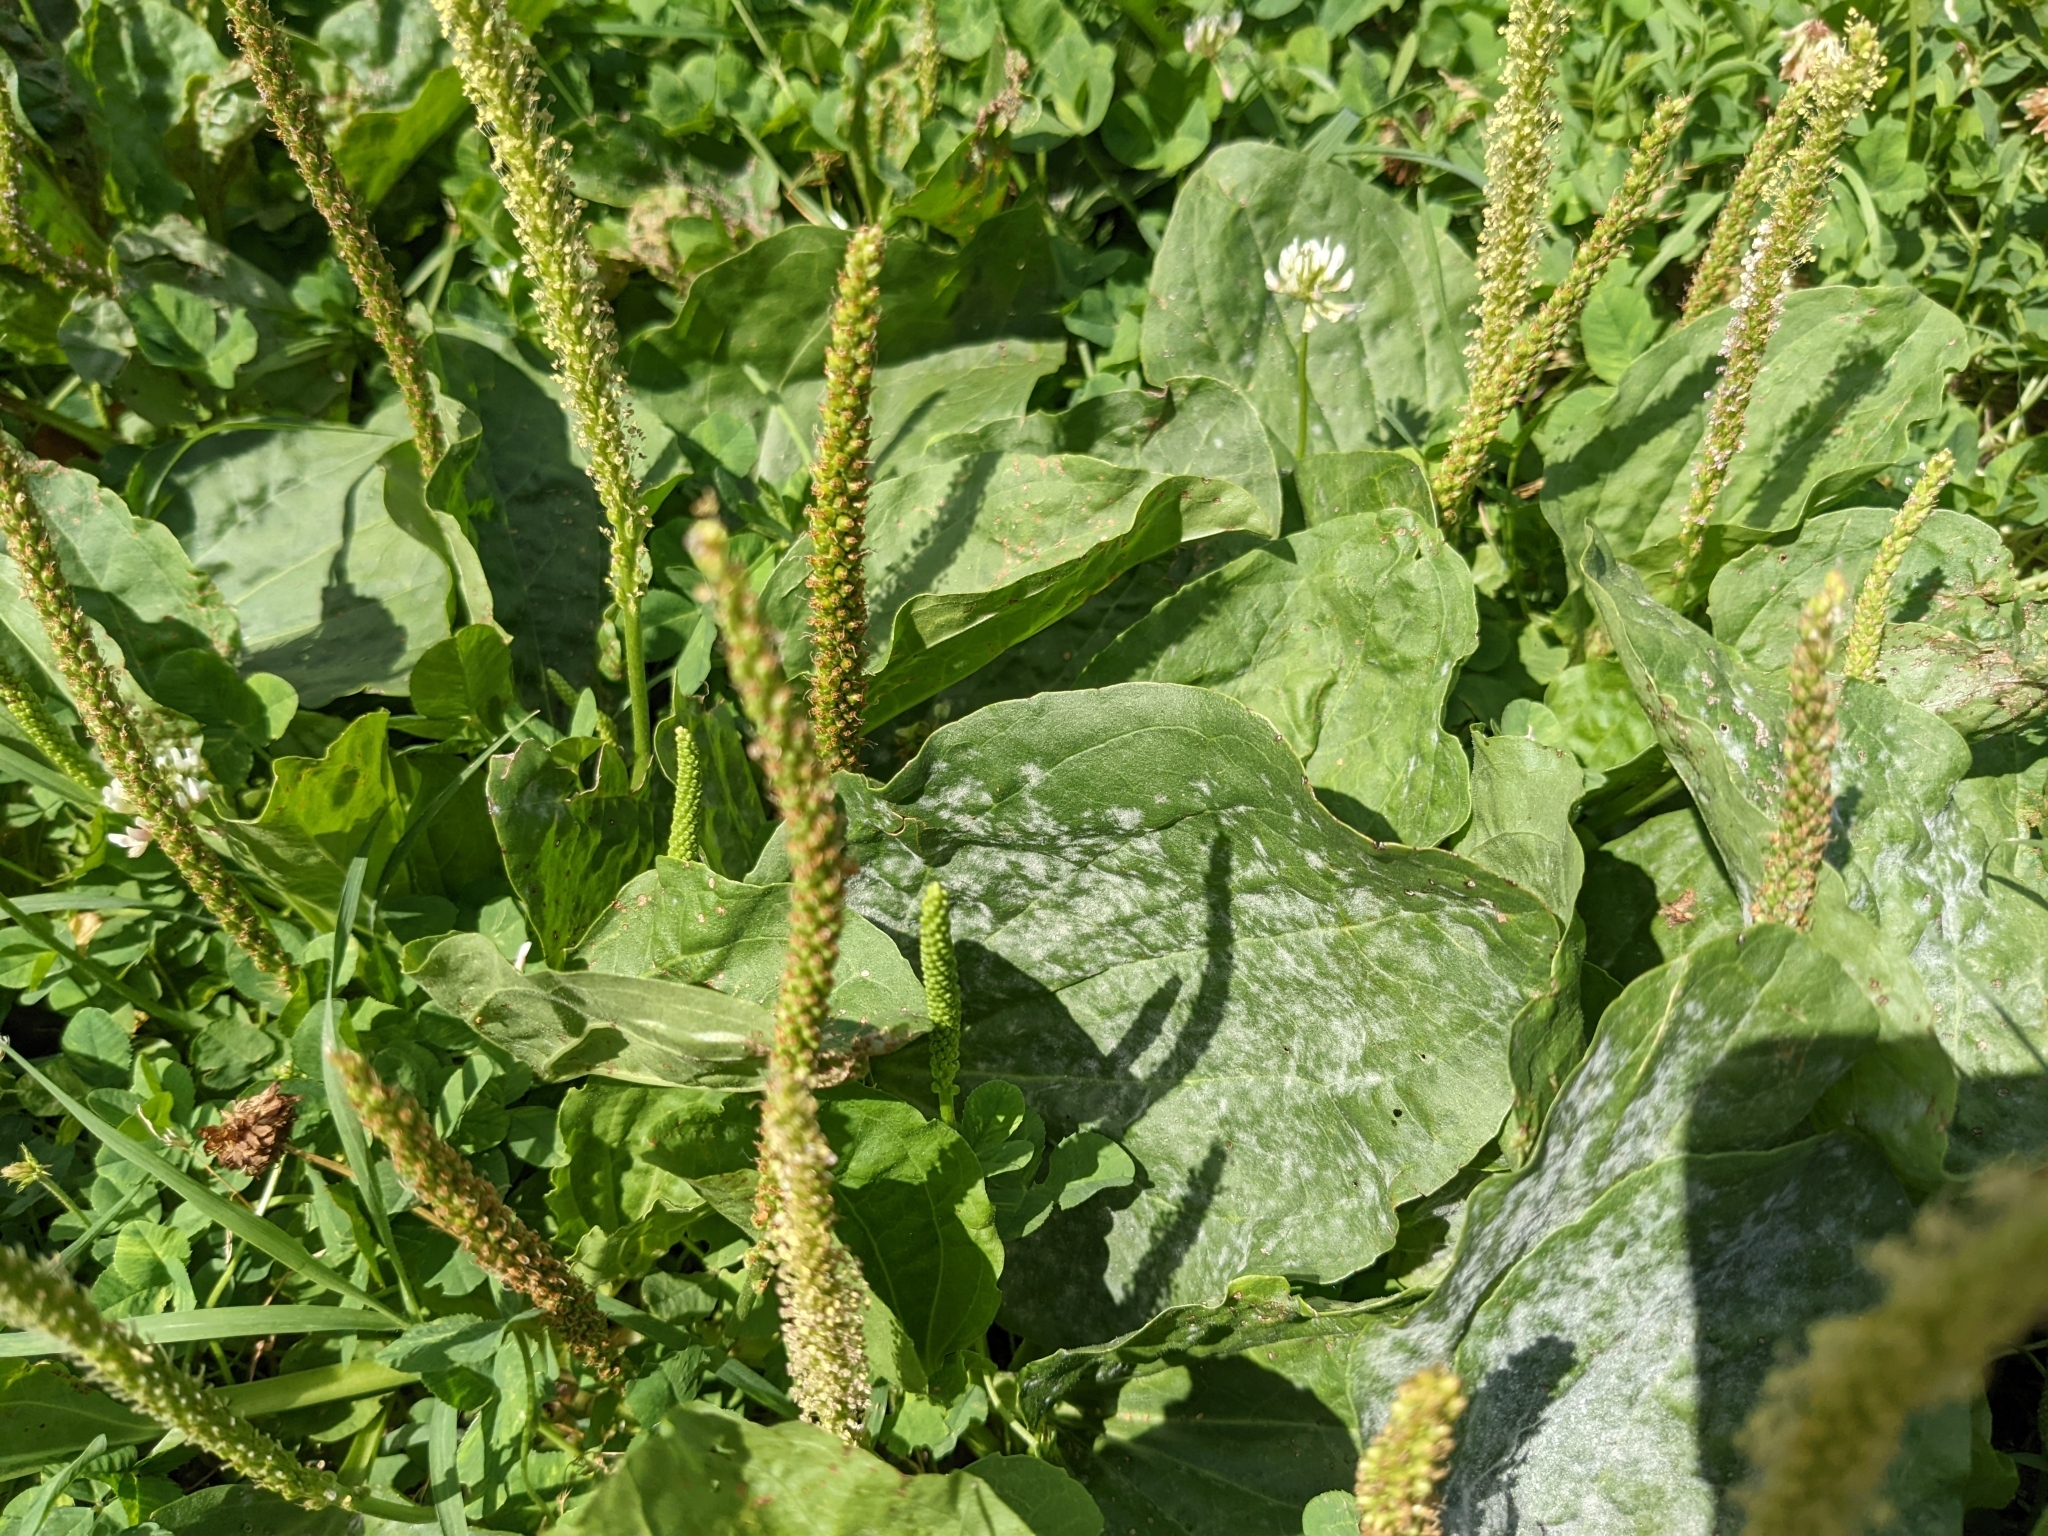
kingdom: Plantae
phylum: Tracheophyta
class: Magnoliopsida
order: Lamiales
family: Plantaginaceae
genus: Plantago
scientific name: Plantago major
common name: Common plantain
